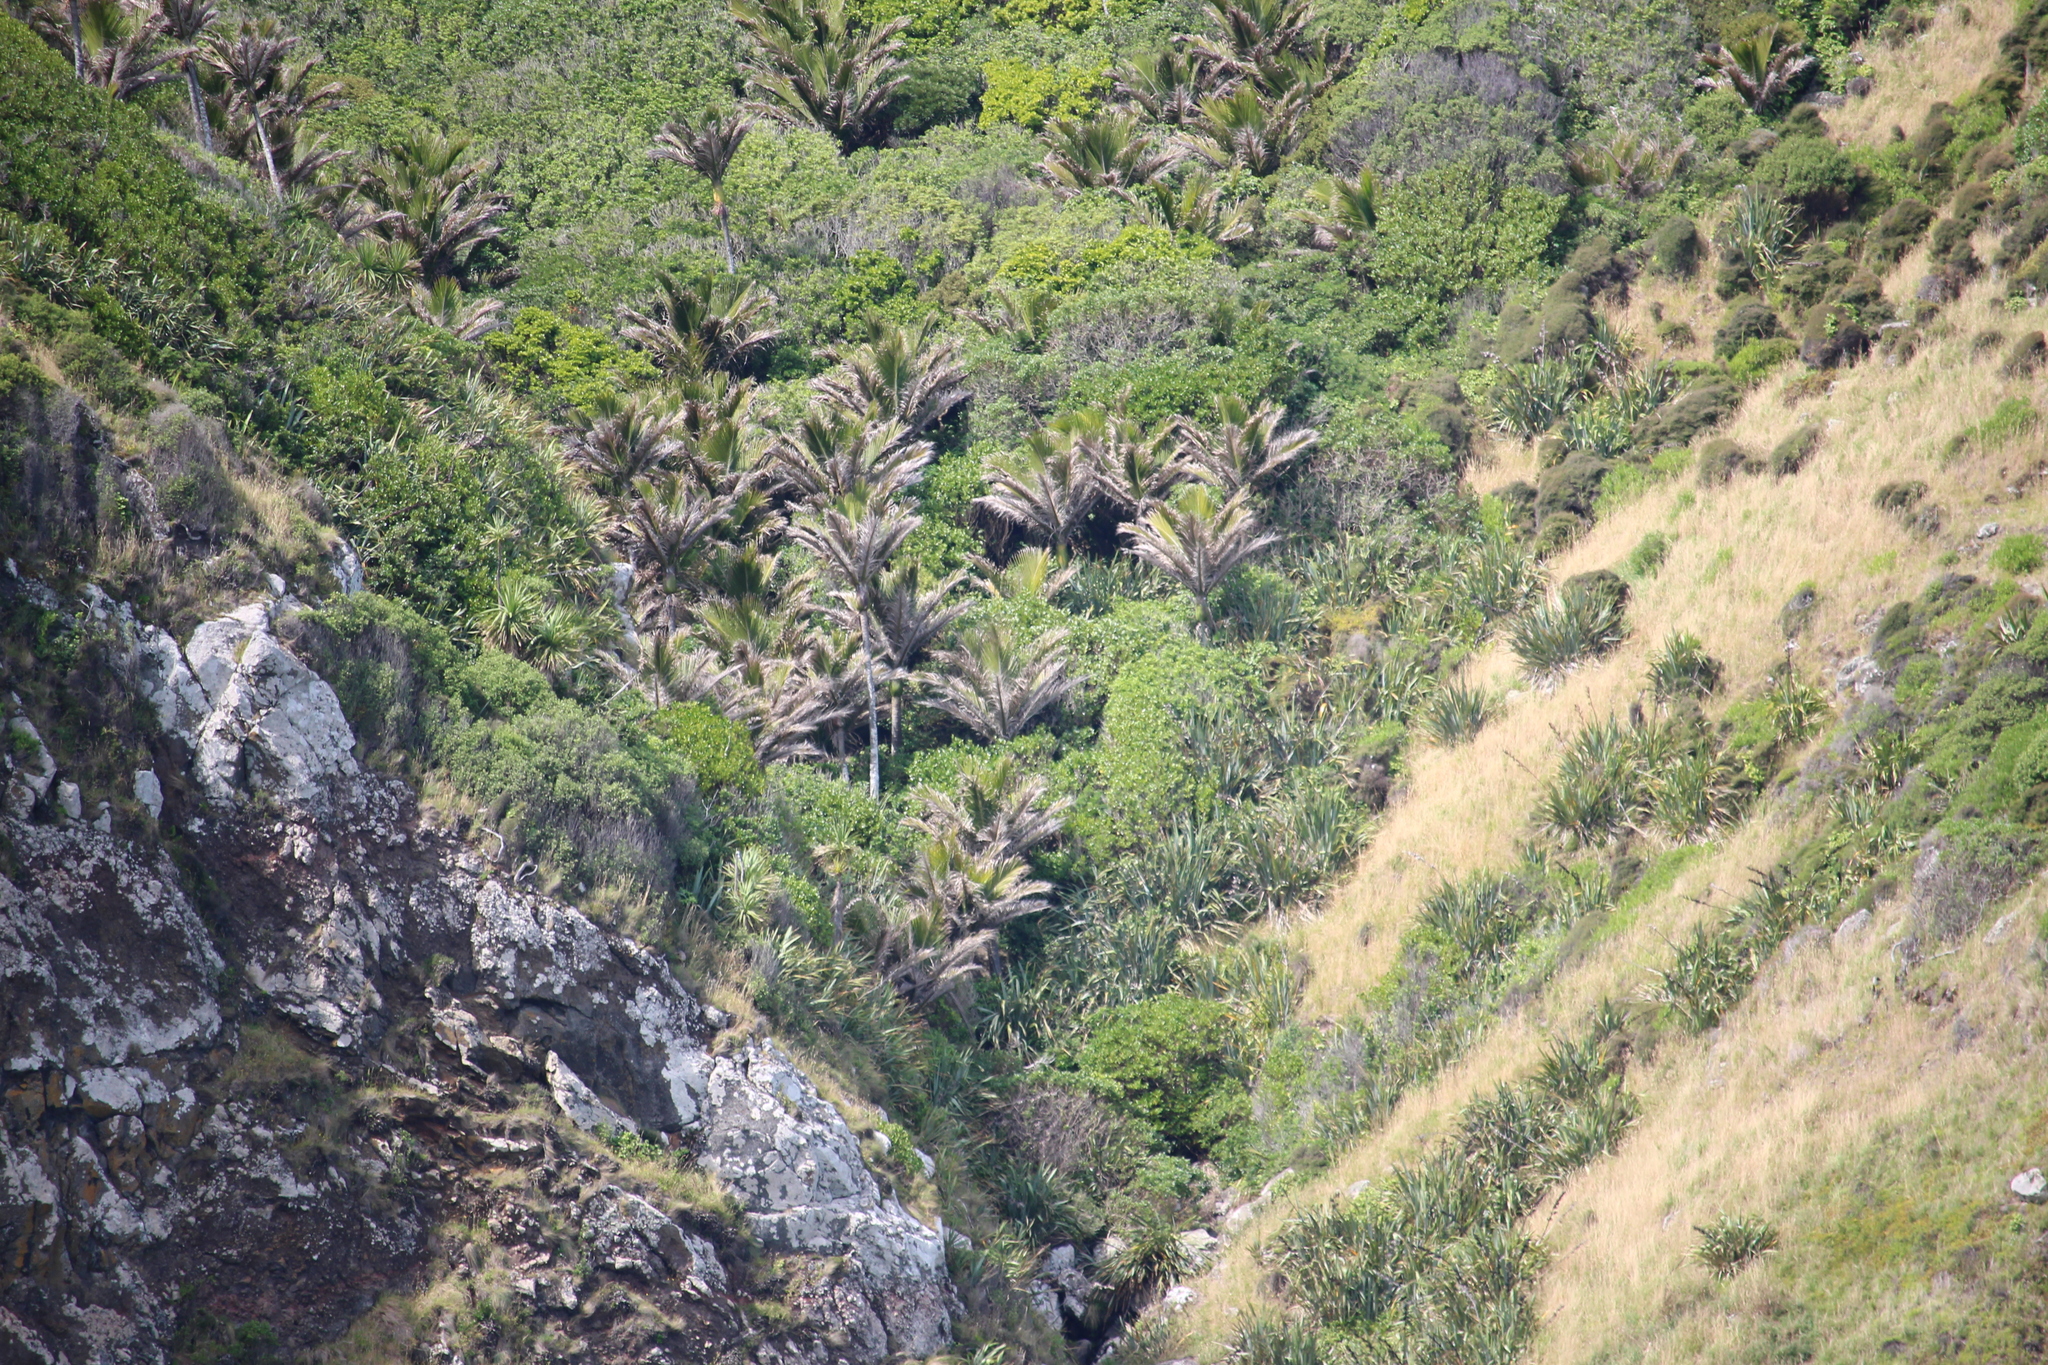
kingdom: Plantae
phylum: Tracheophyta
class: Liliopsida
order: Arecales
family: Arecaceae
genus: Rhopalostylis
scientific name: Rhopalostylis sapida
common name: Feather-duster palm
